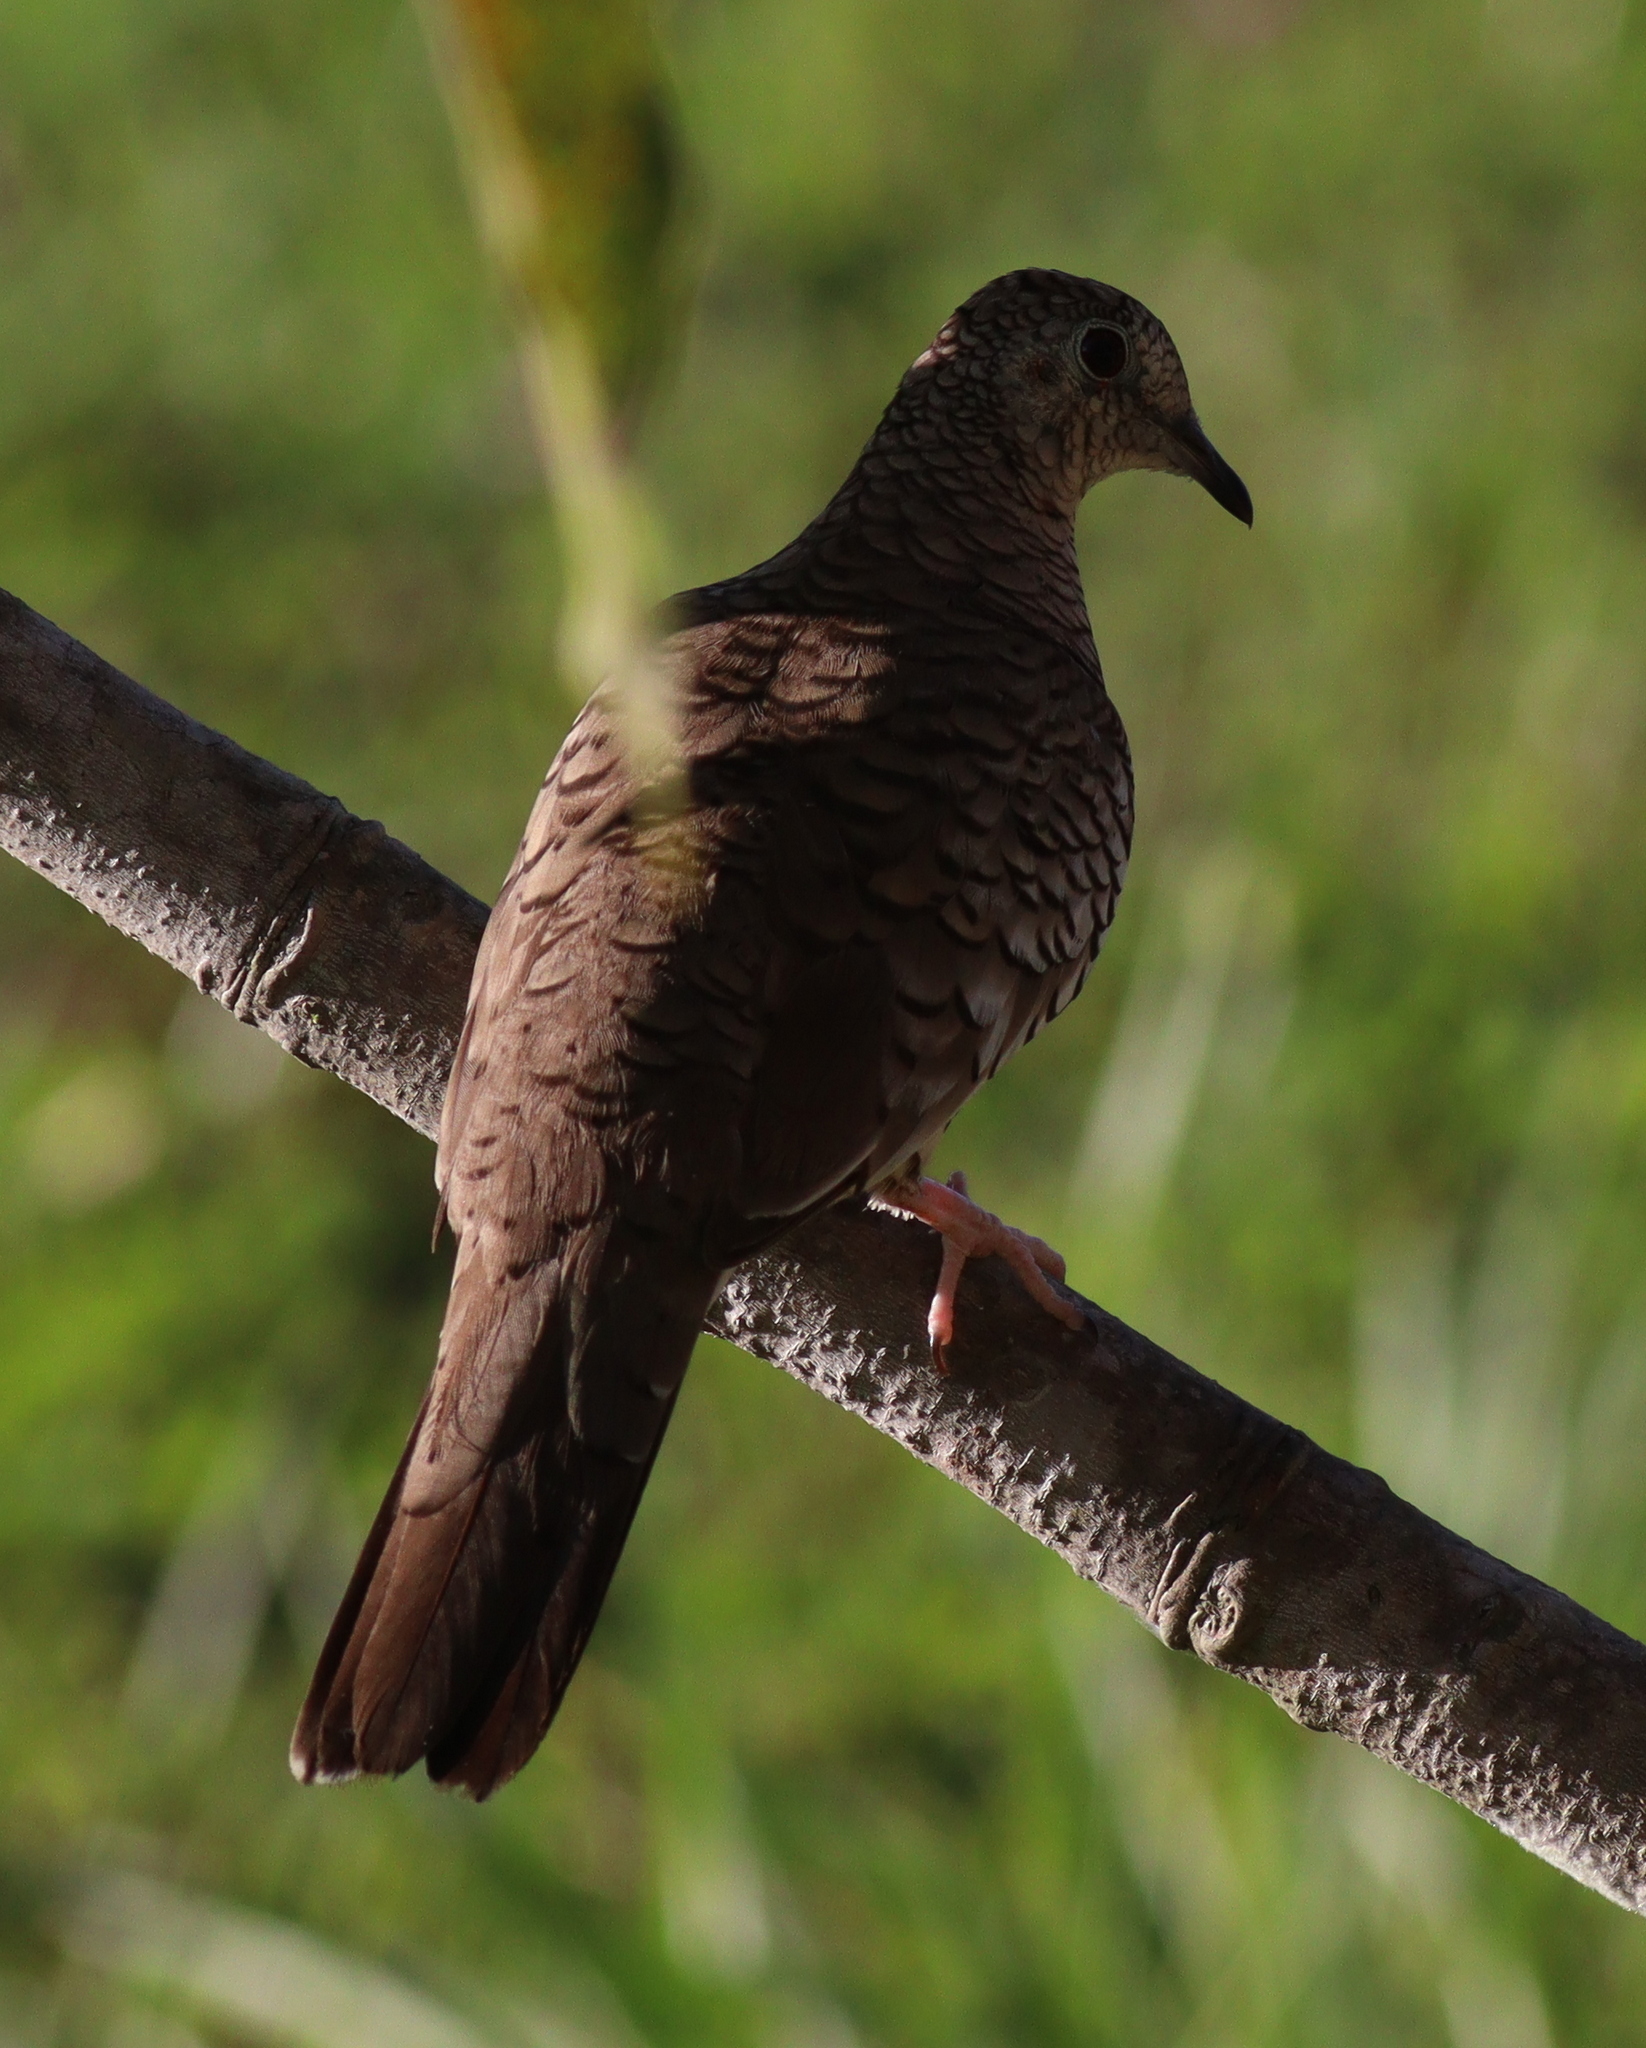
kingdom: Animalia
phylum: Chordata
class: Aves
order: Columbiformes
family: Columbidae
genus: Columbina
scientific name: Columbina squammata
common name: Scaled dove
